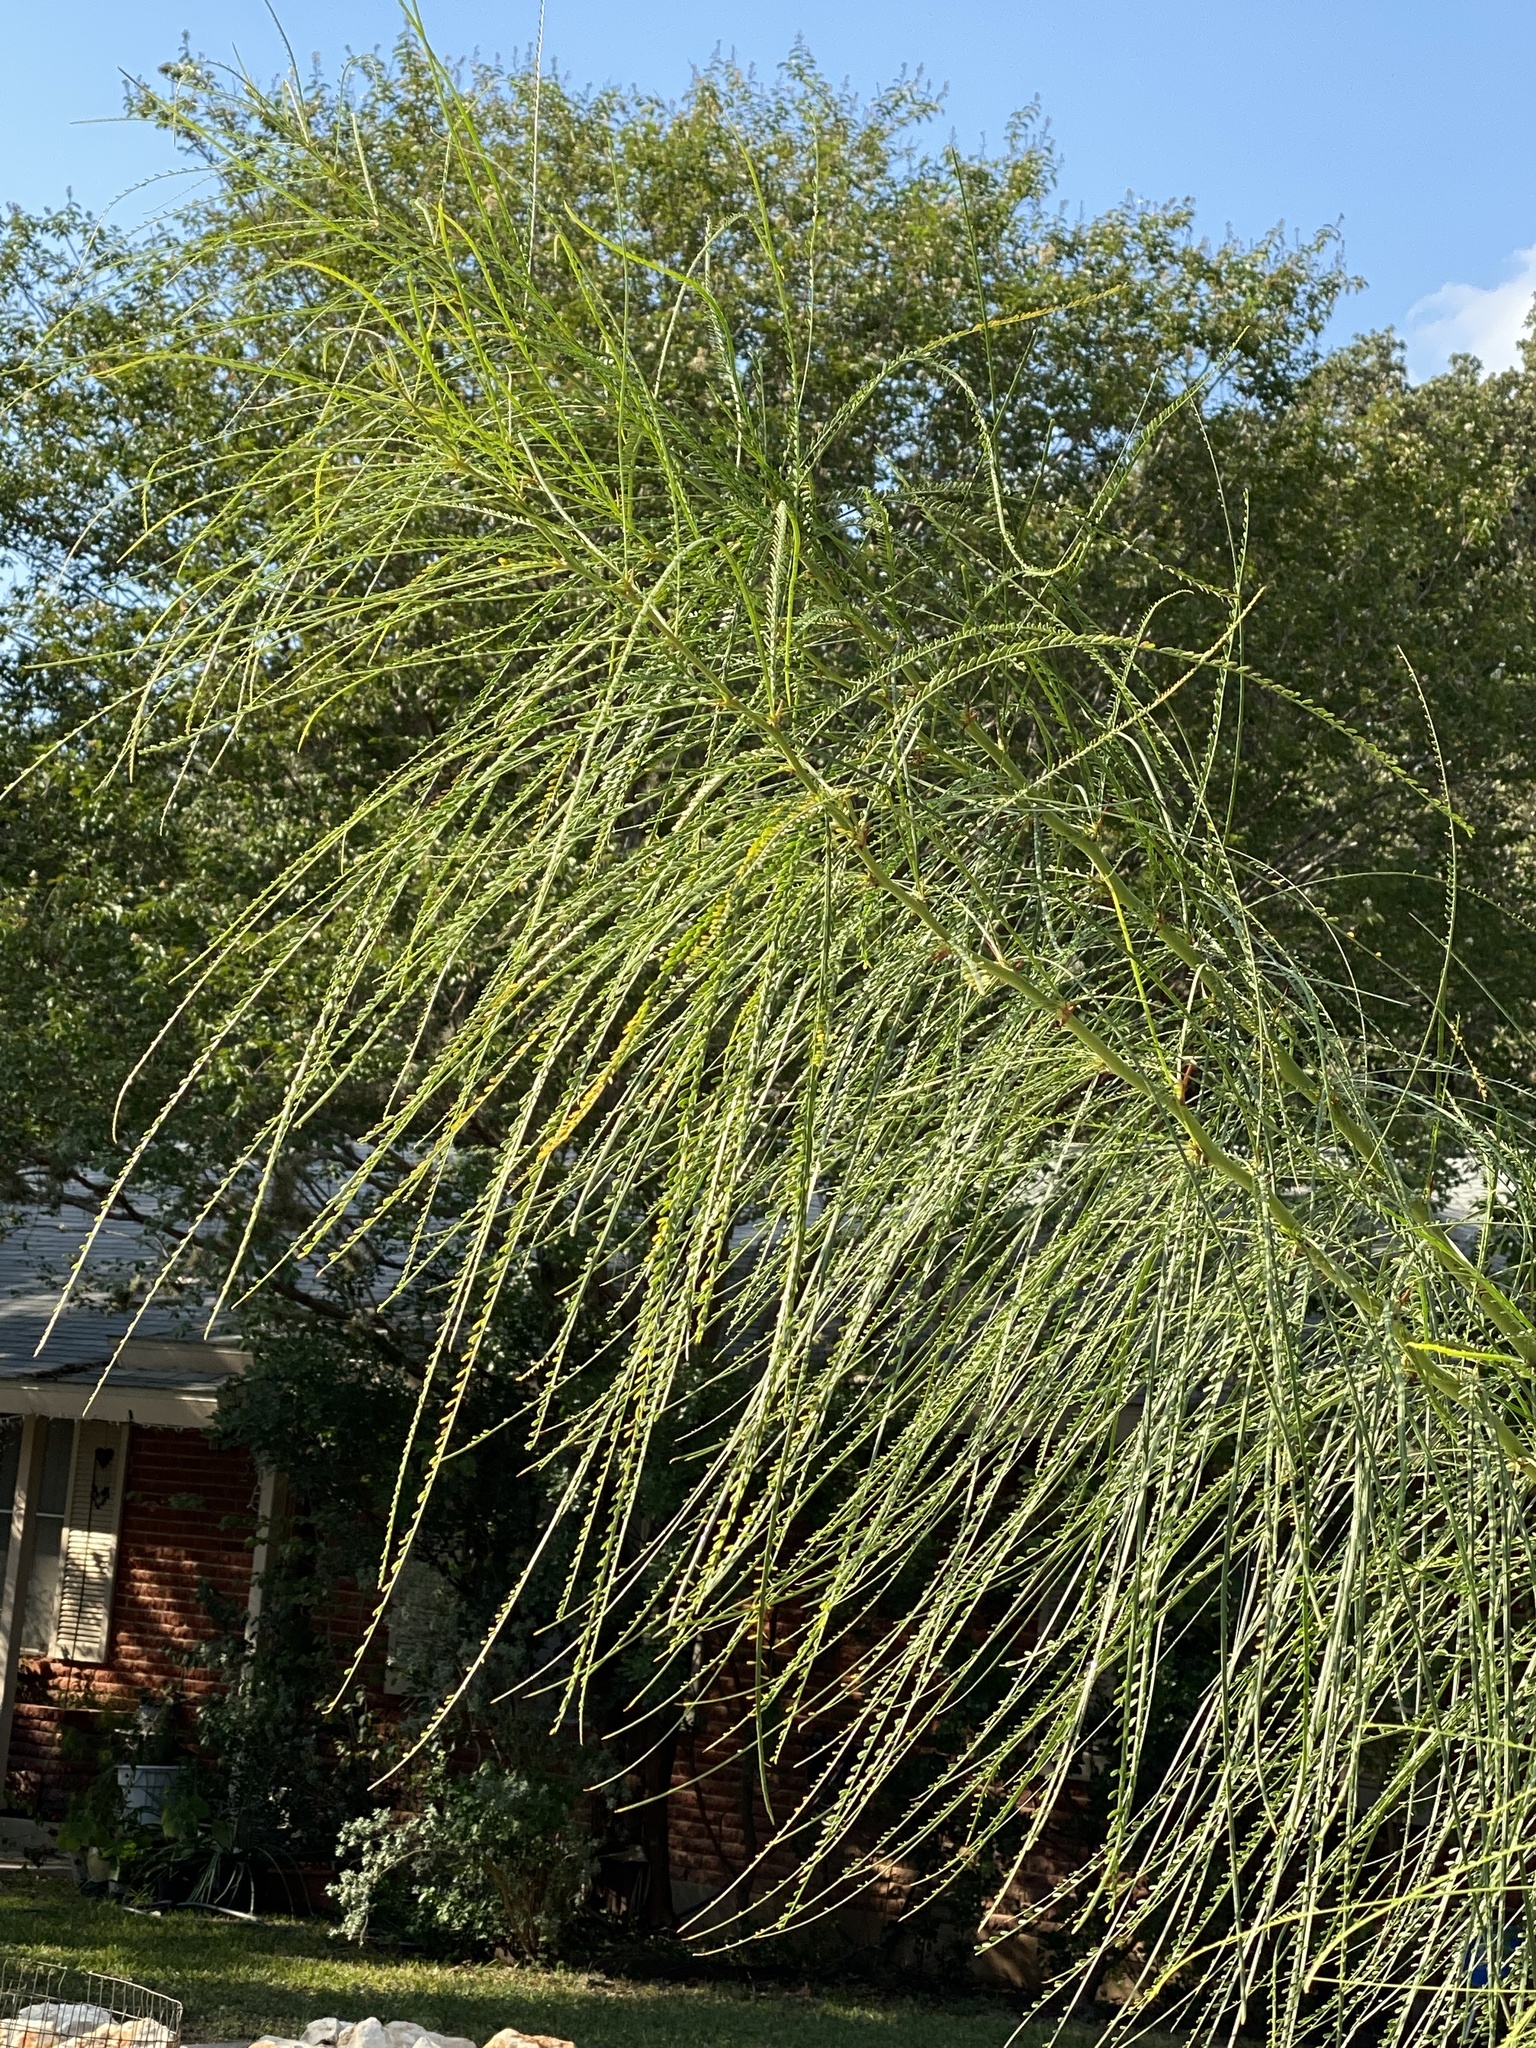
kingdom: Plantae
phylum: Tracheophyta
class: Magnoliopsida
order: Fabales
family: Fabaceae
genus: Parkinsonia
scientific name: Parkinsonia aculeata
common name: Jerusalem thorn
